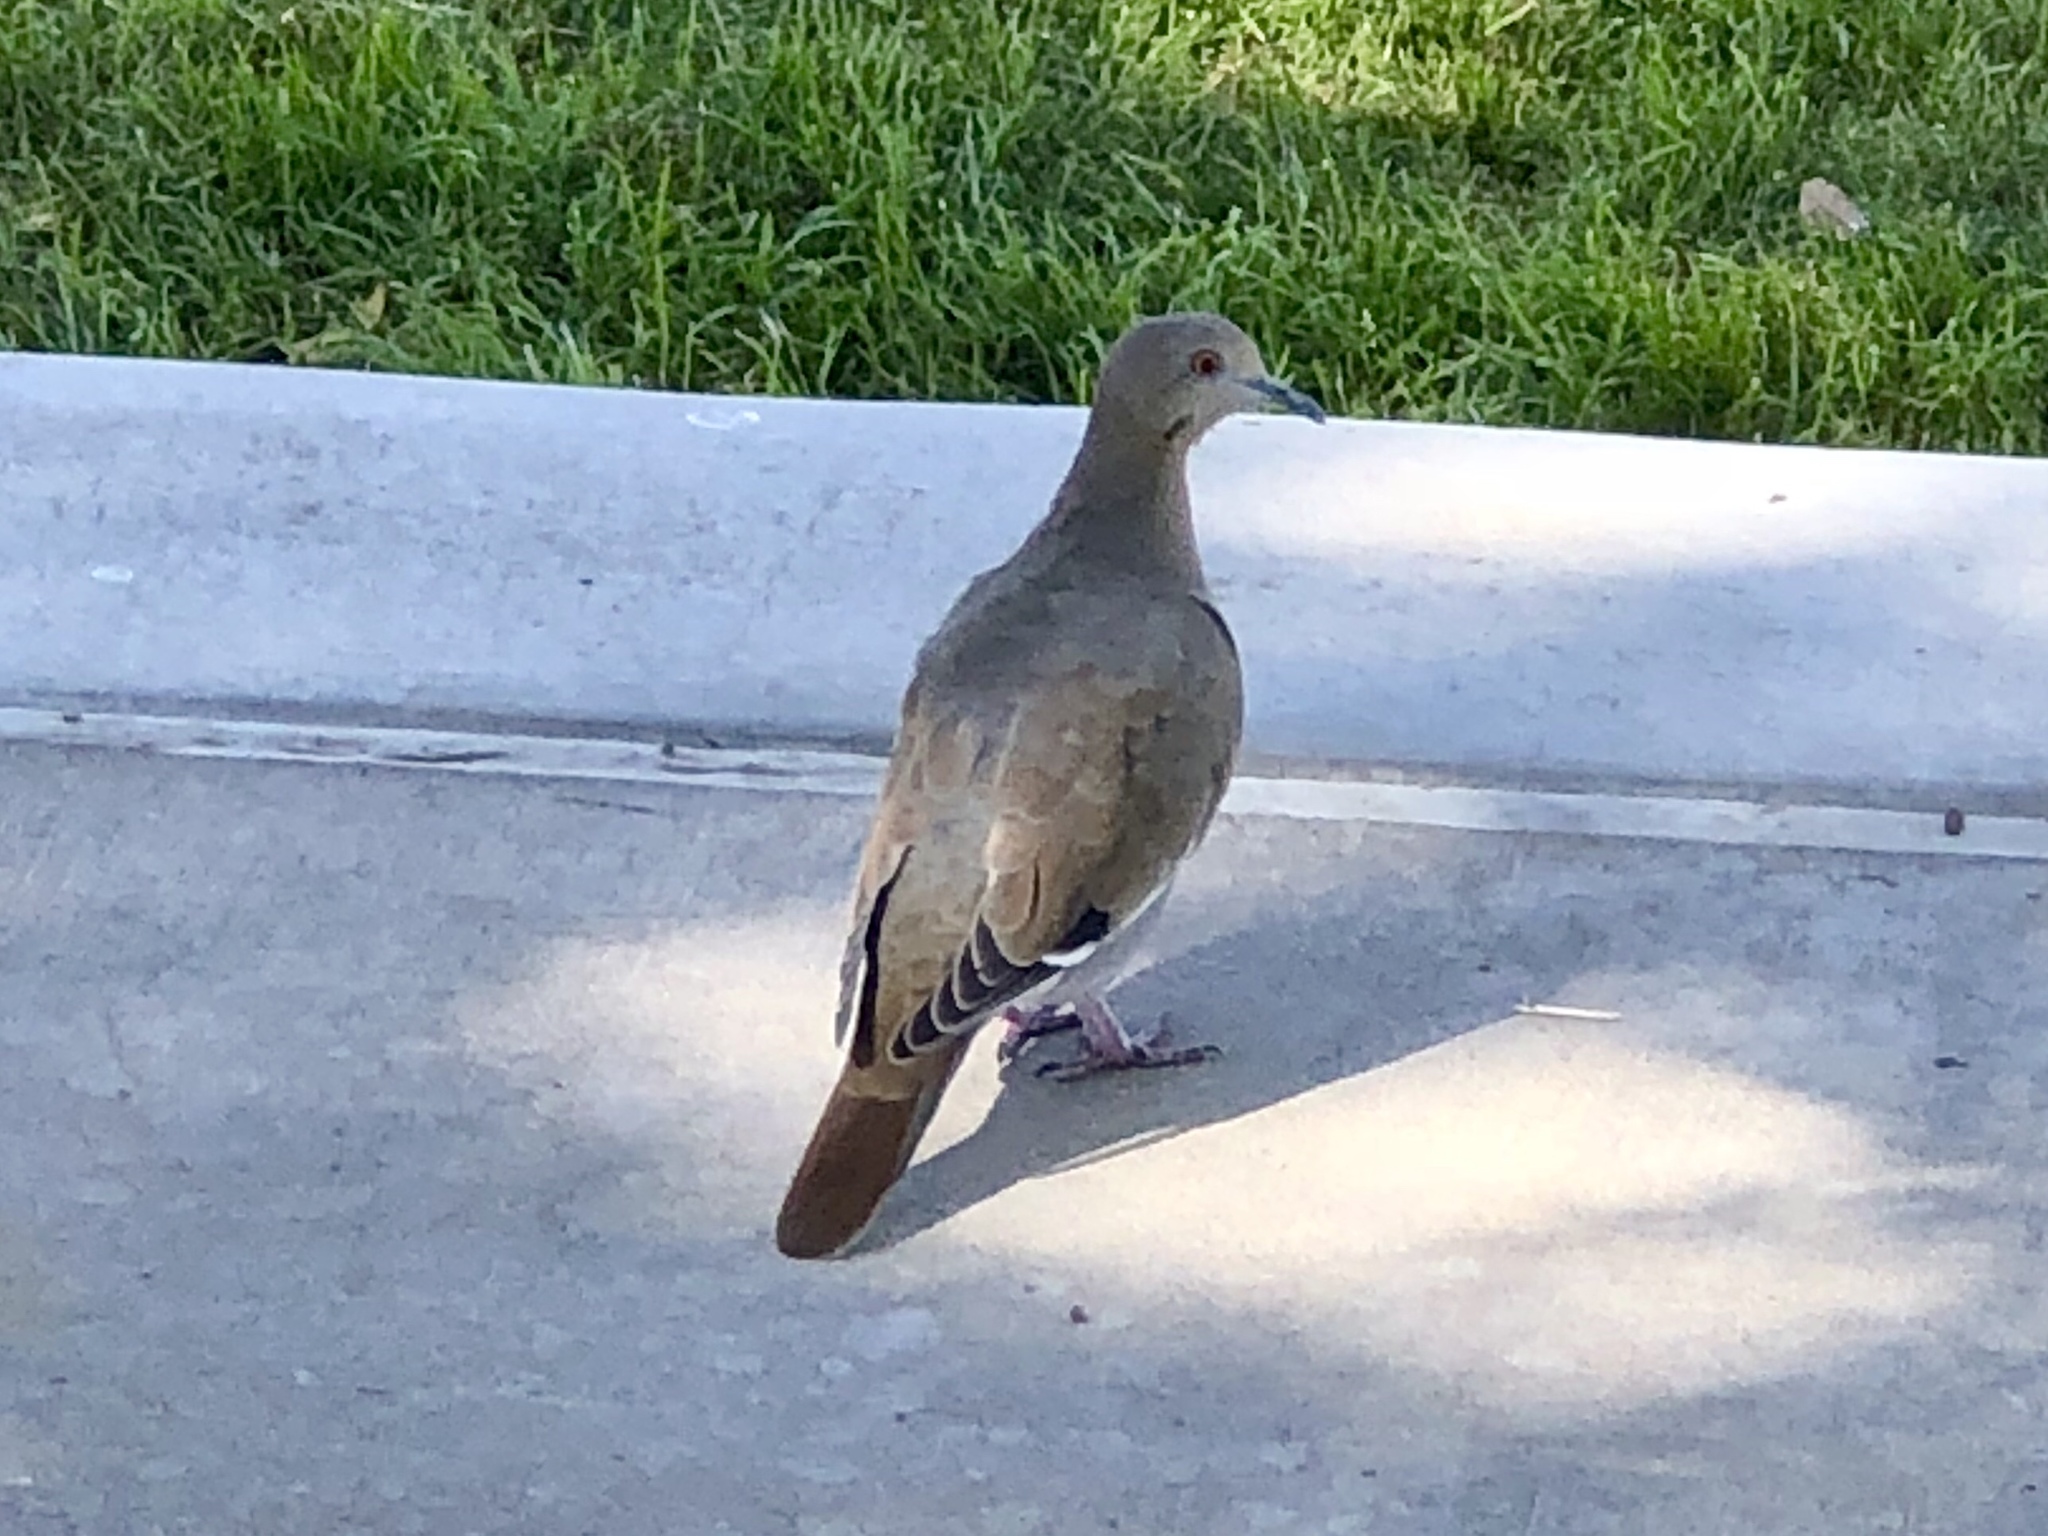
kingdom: Animalia
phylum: Chordata
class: Aves
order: Columbiformes
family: Columbidae
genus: Zenaida
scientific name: Zenaida asiatica
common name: White-winged dove
